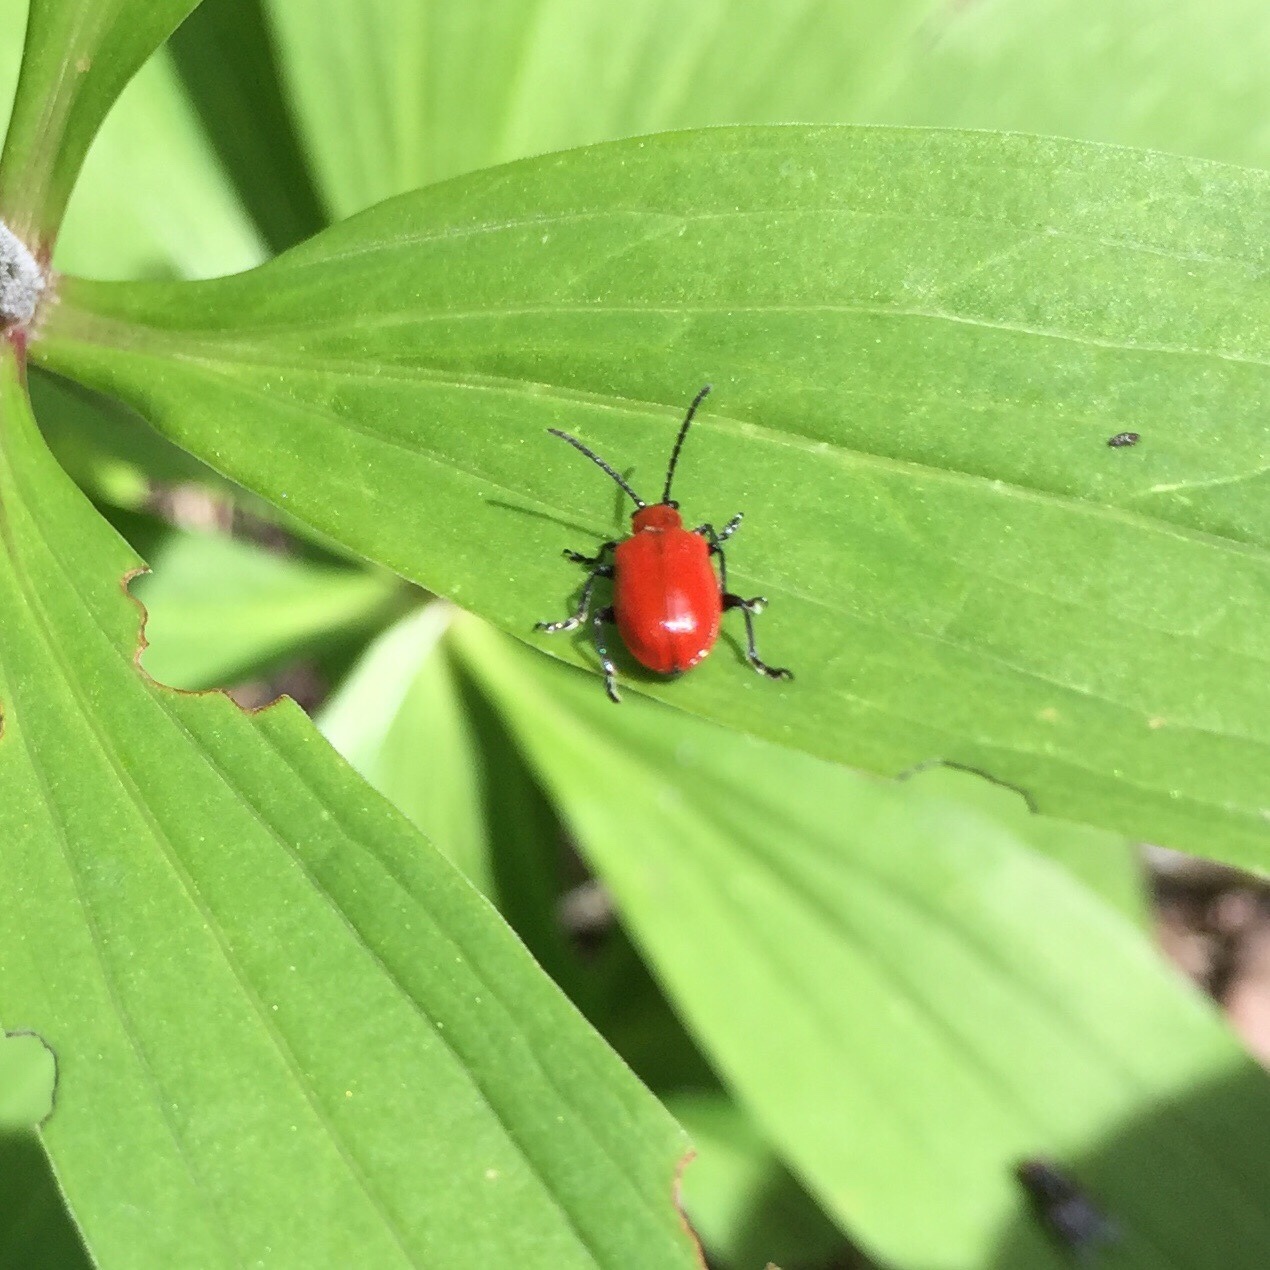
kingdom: Animalia
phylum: Arthropoda
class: Insecta
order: Coleoptera
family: Chrysomelidae
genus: Lilioceris
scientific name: Lilioceris lilii
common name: Lily beetle
